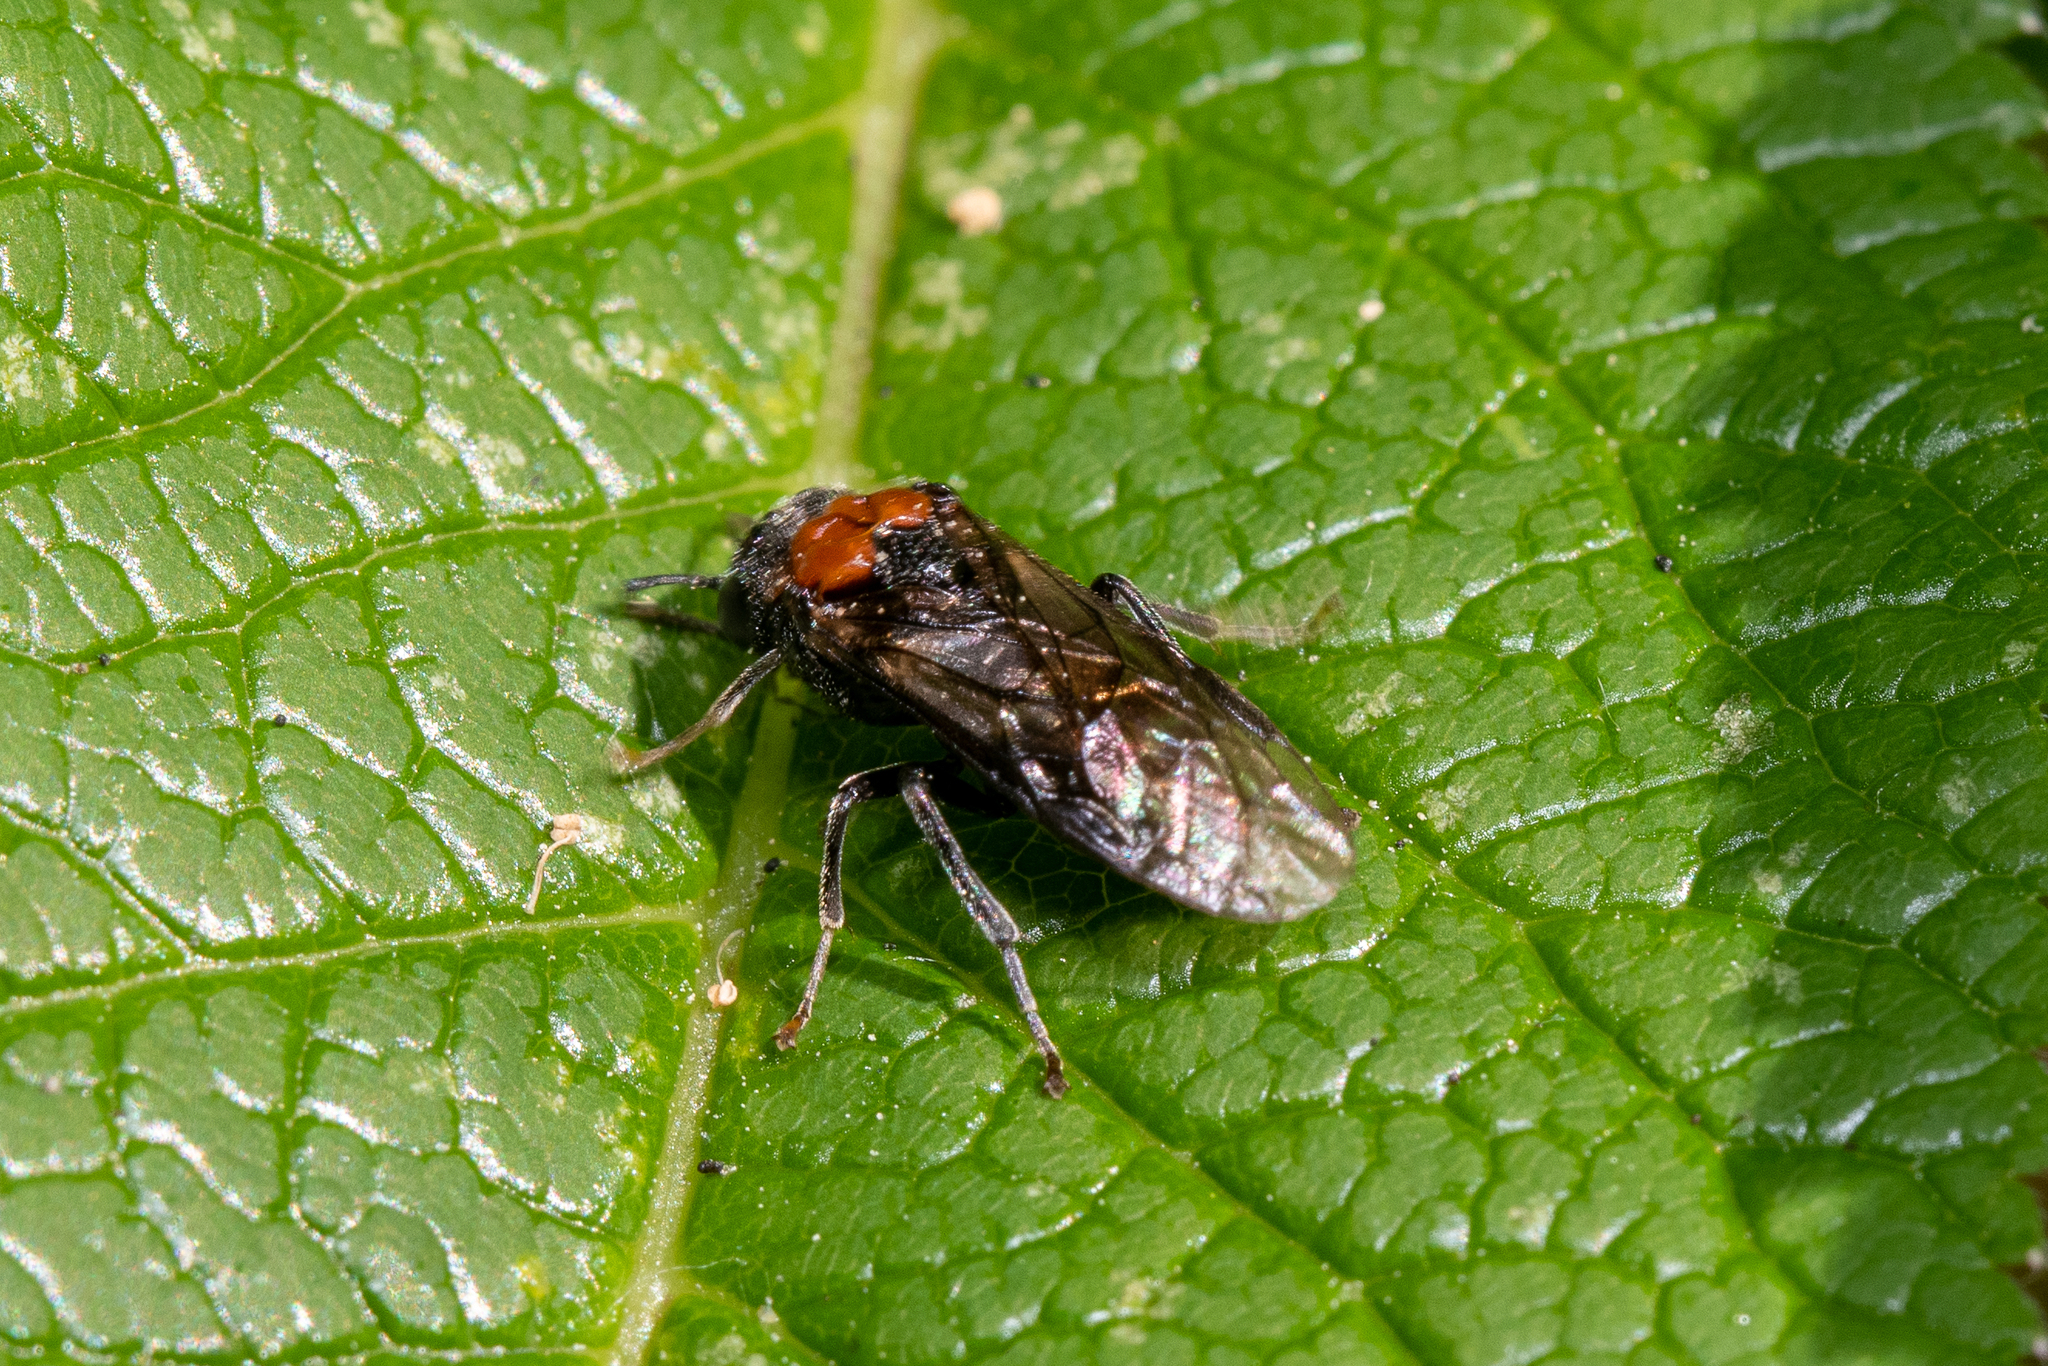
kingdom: Animalia
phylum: Arthropoda
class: Insecta
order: Hymenoptera
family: Tenthredinidae
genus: Eriocampa
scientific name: Eriocampa ovata
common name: Alder wooly sawfly
